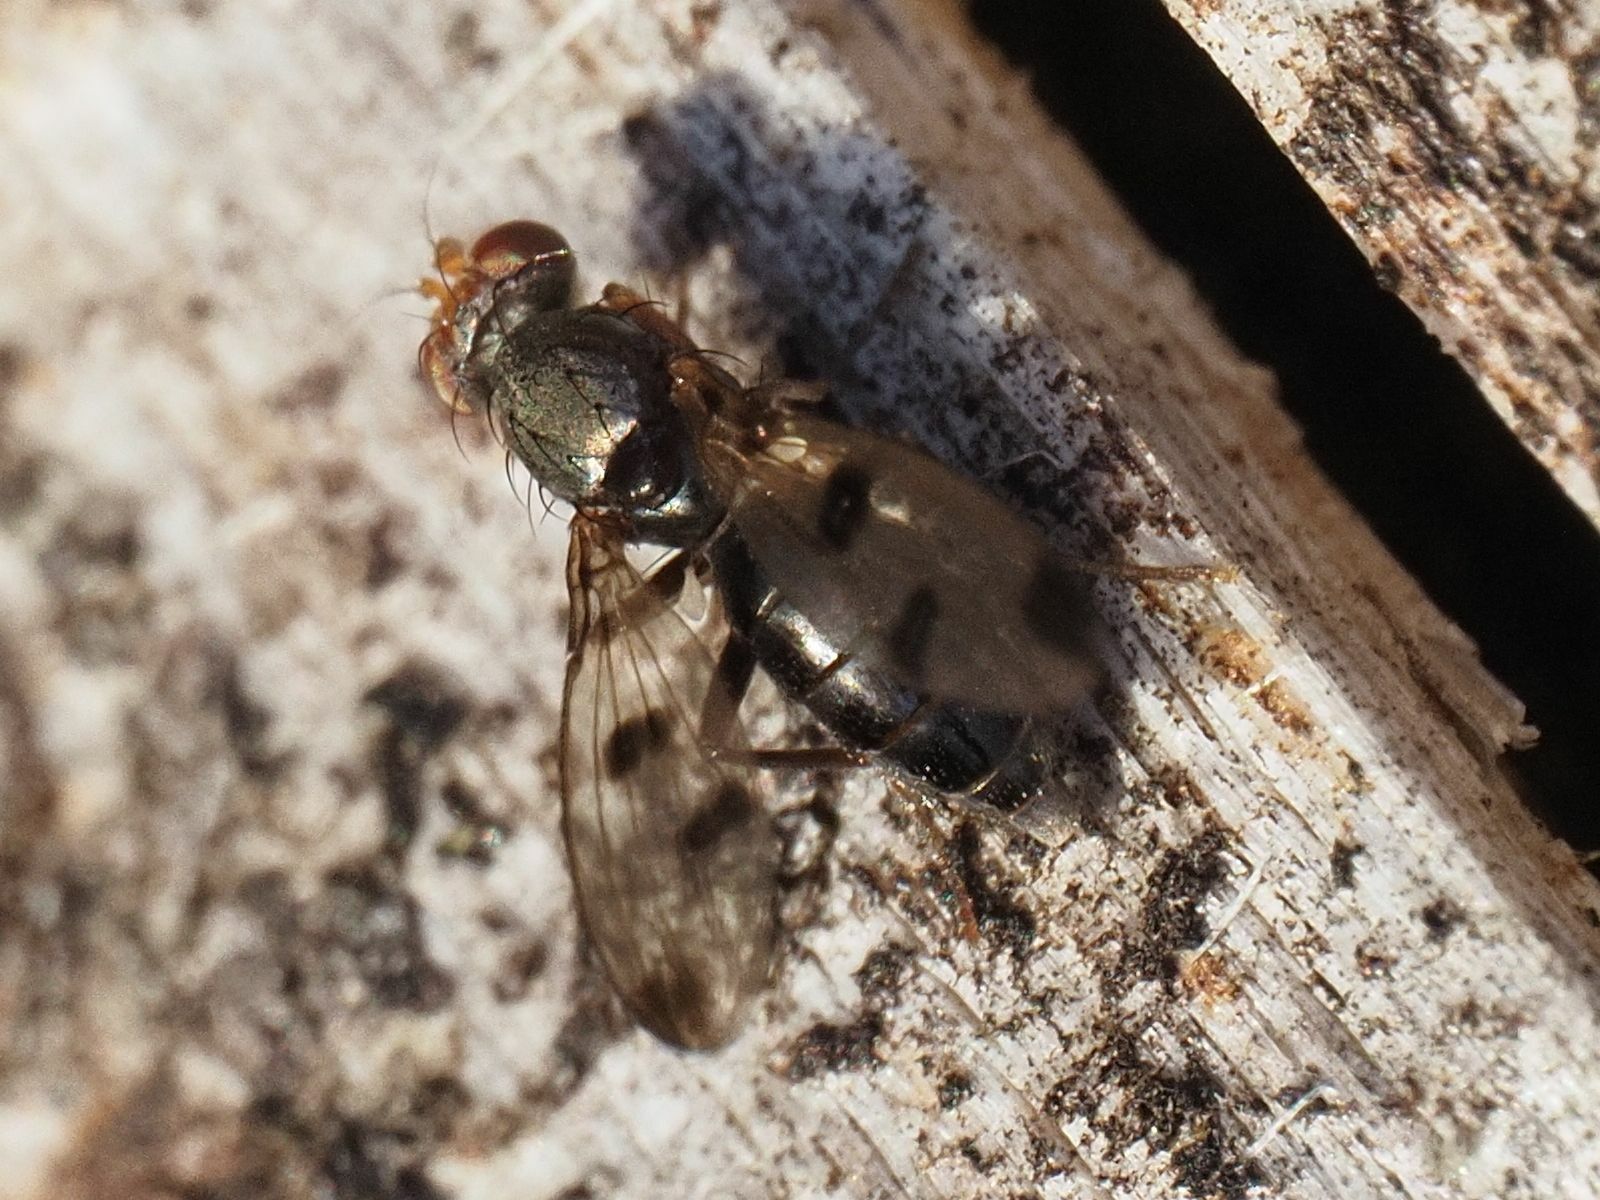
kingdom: Animalia
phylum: Arthropoda
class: Insecta
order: Diptera
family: Opomyzidae
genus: Geomyza
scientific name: Geomyza tripunctata
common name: Cereal fly
